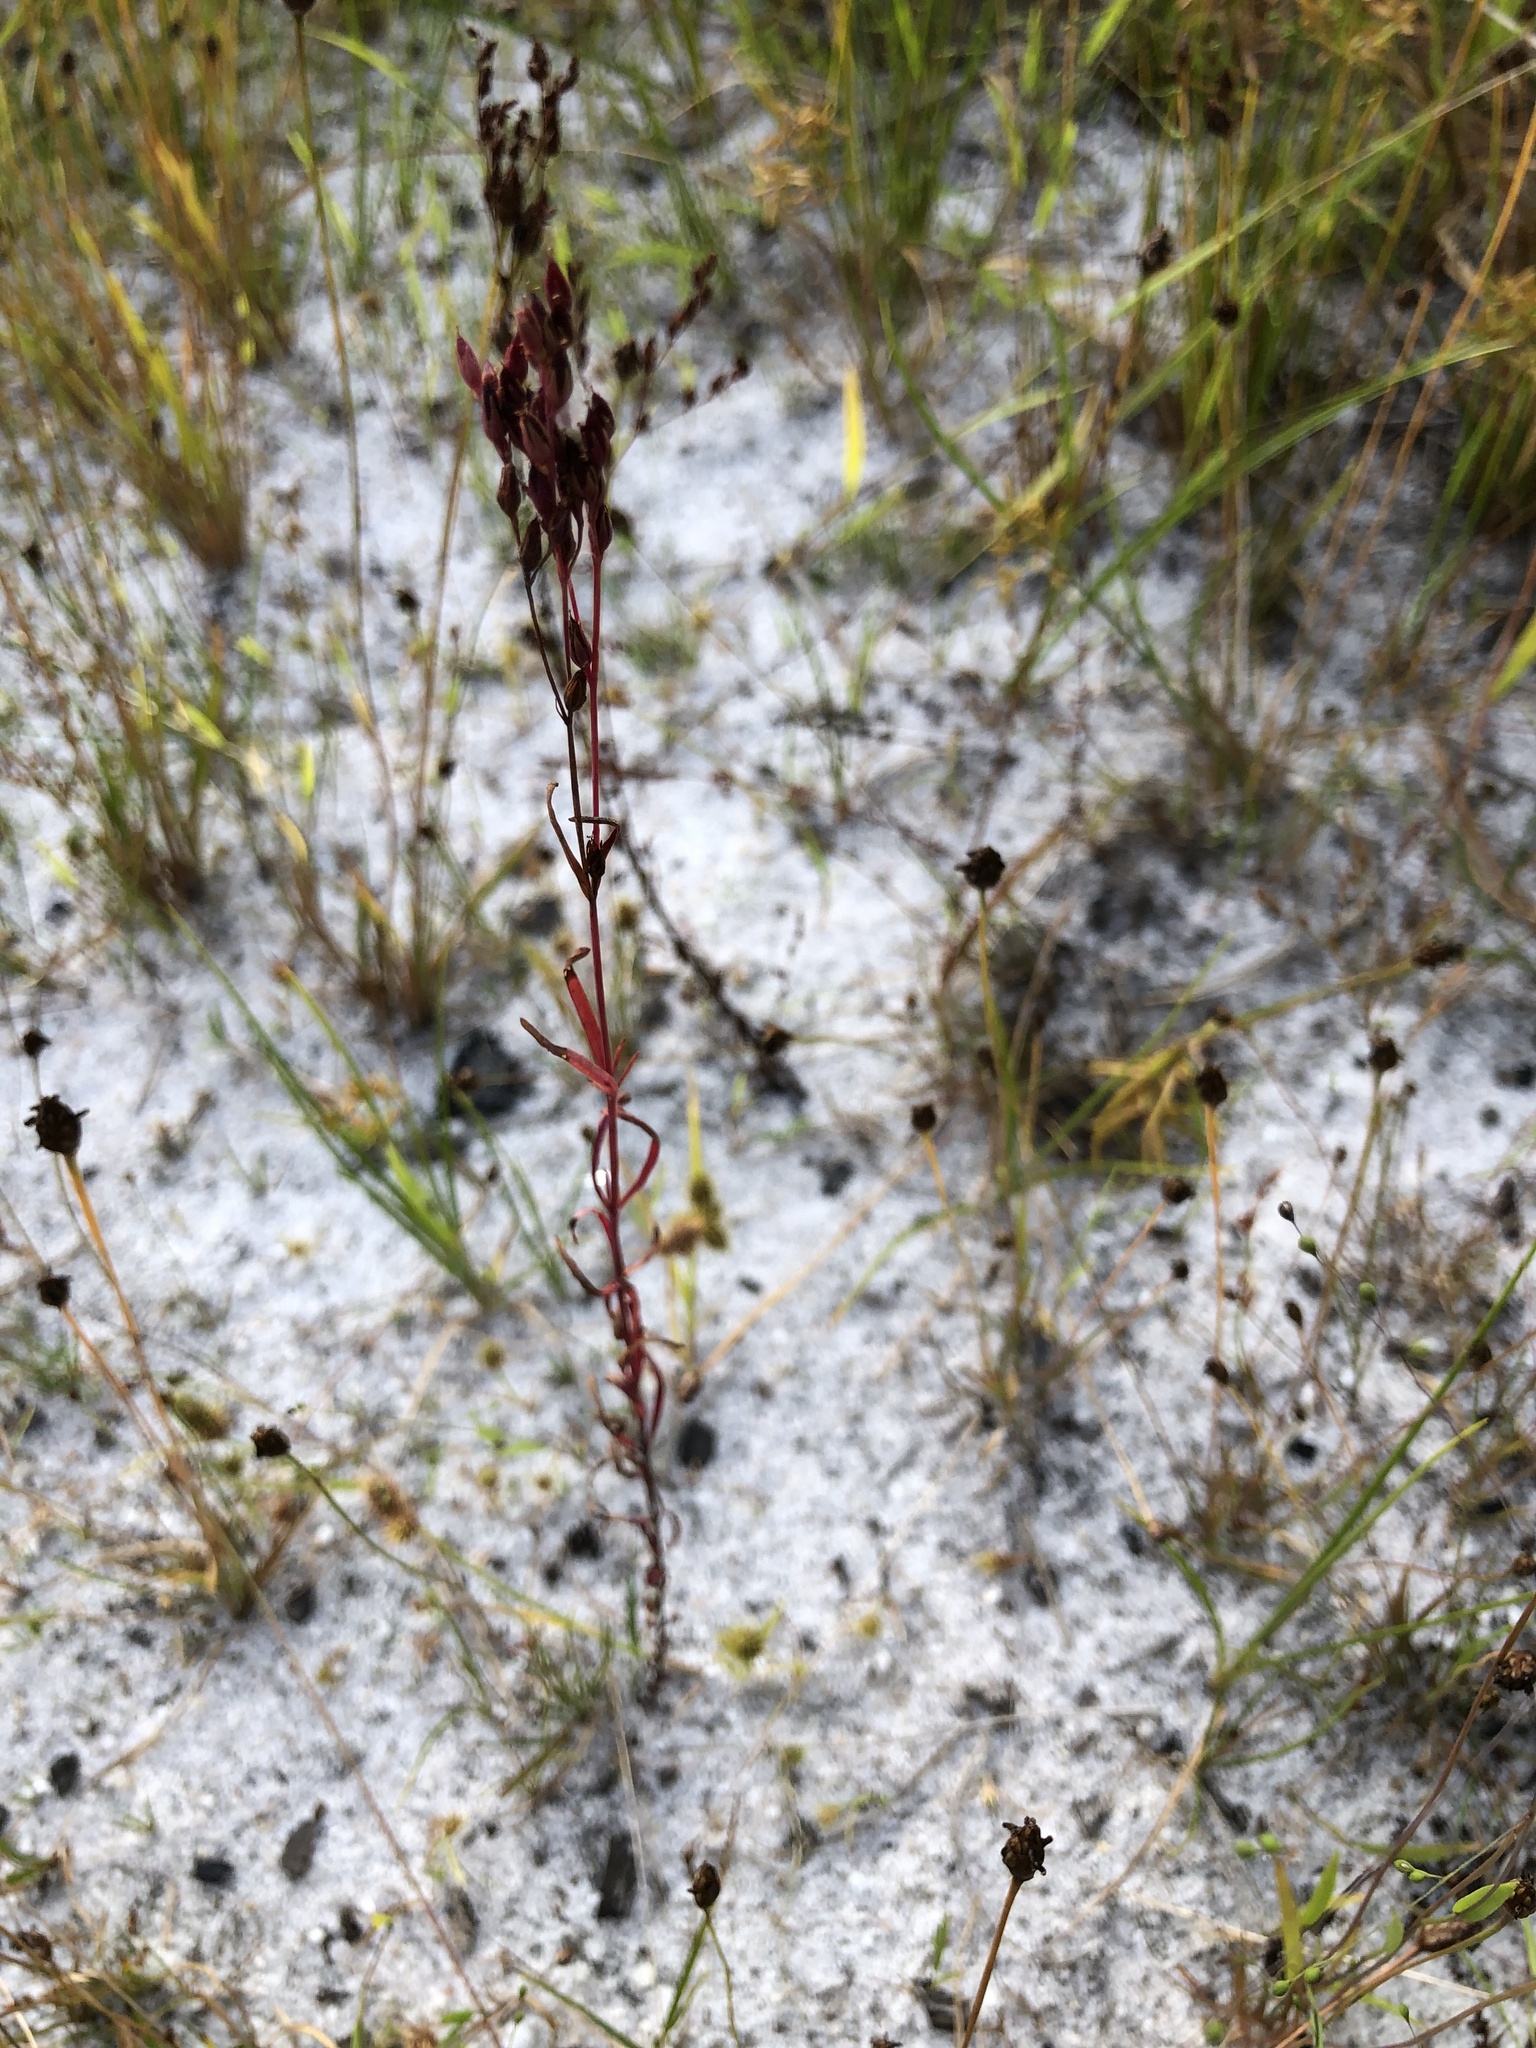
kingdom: Plantae
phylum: Tracheophyta
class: Magnoliopsida
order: Malpighiales
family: Hypericaceae
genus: Hypericum
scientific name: Hypericum denticulatum
